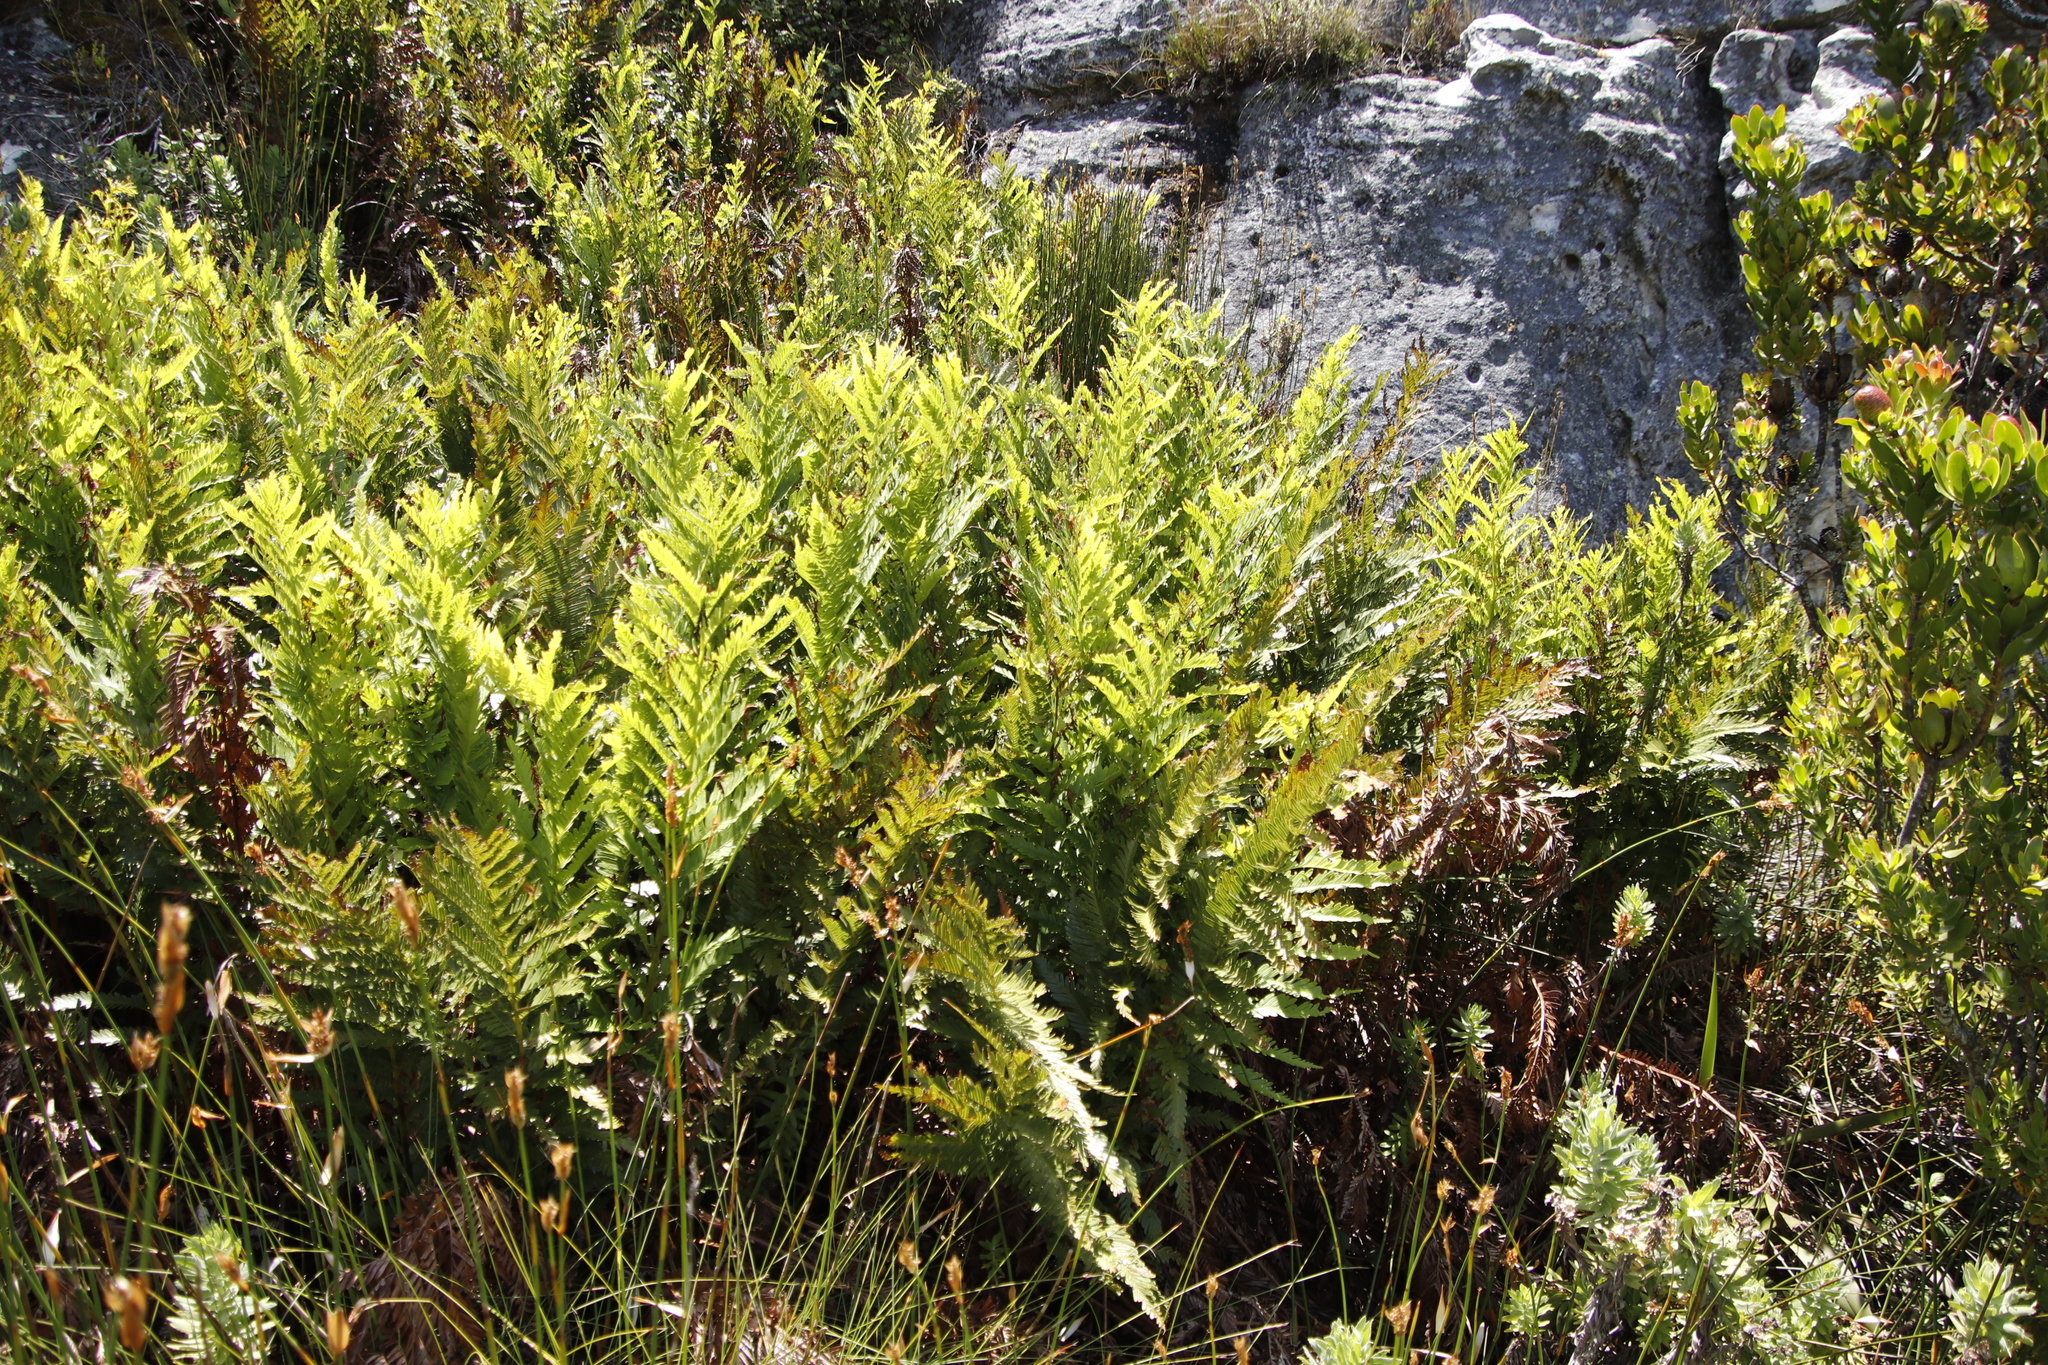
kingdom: Plantae
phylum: Tracheophyta
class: Polypodiopsida
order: Osmundales
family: Osmundaceae
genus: Todea
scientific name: Todea barbara
